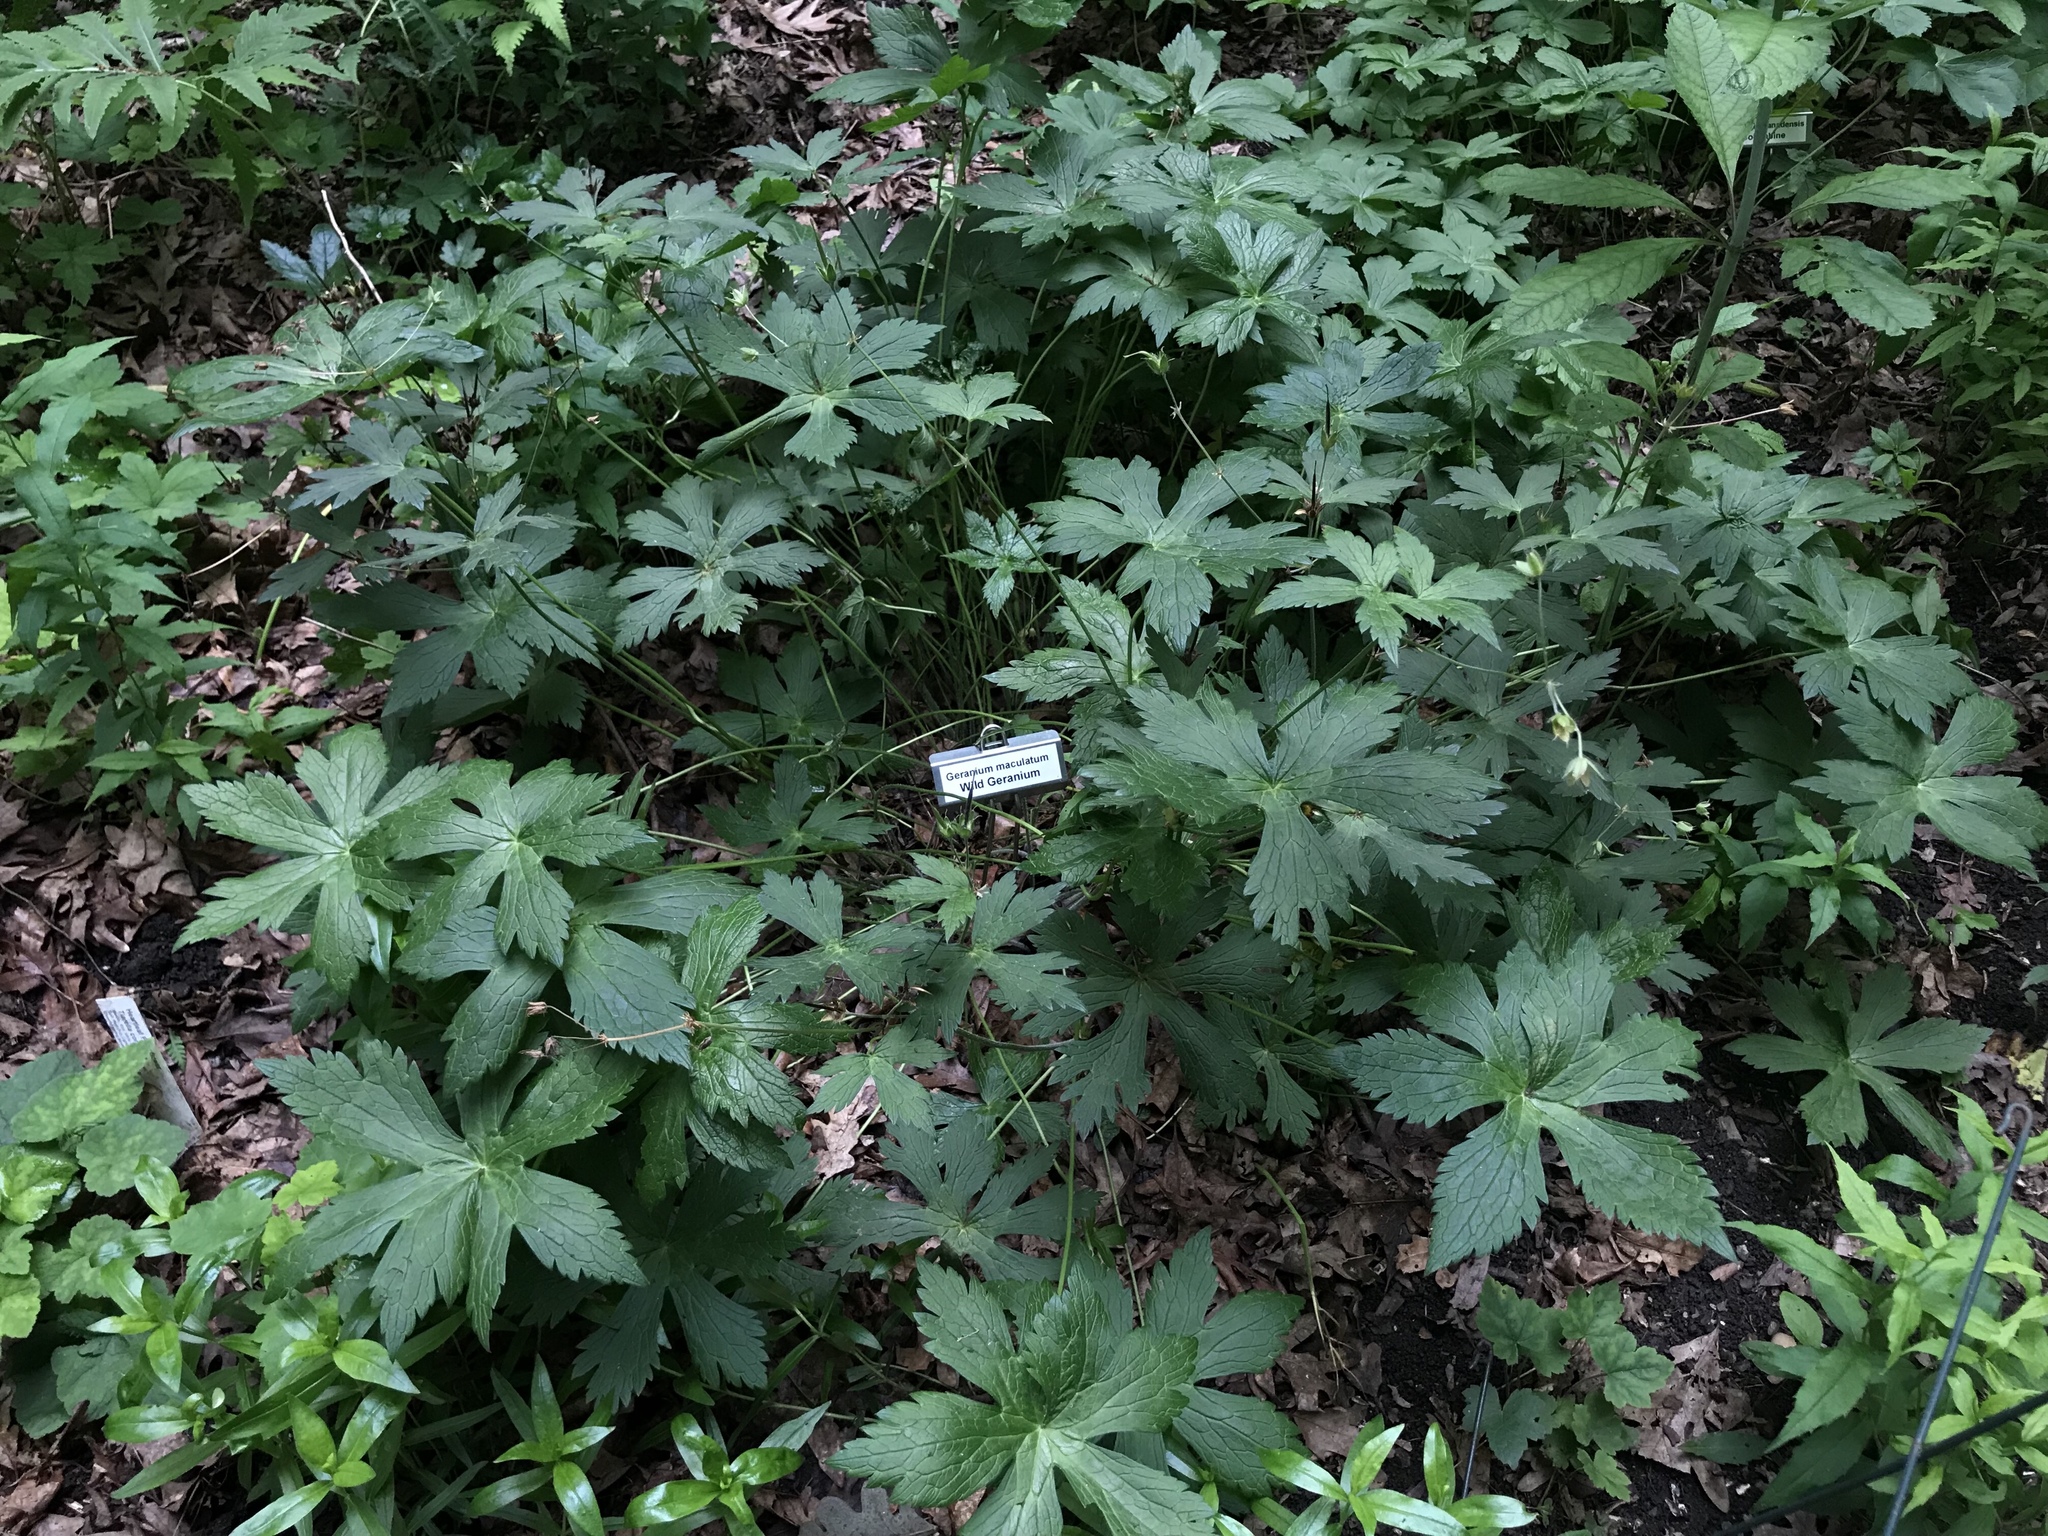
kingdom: Plantae
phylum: Tracheophyta
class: Magnoliopsida
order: Geraniales
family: Geraniaceae
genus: Geranium
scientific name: Geranium maculatum
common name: Spotted geranium
